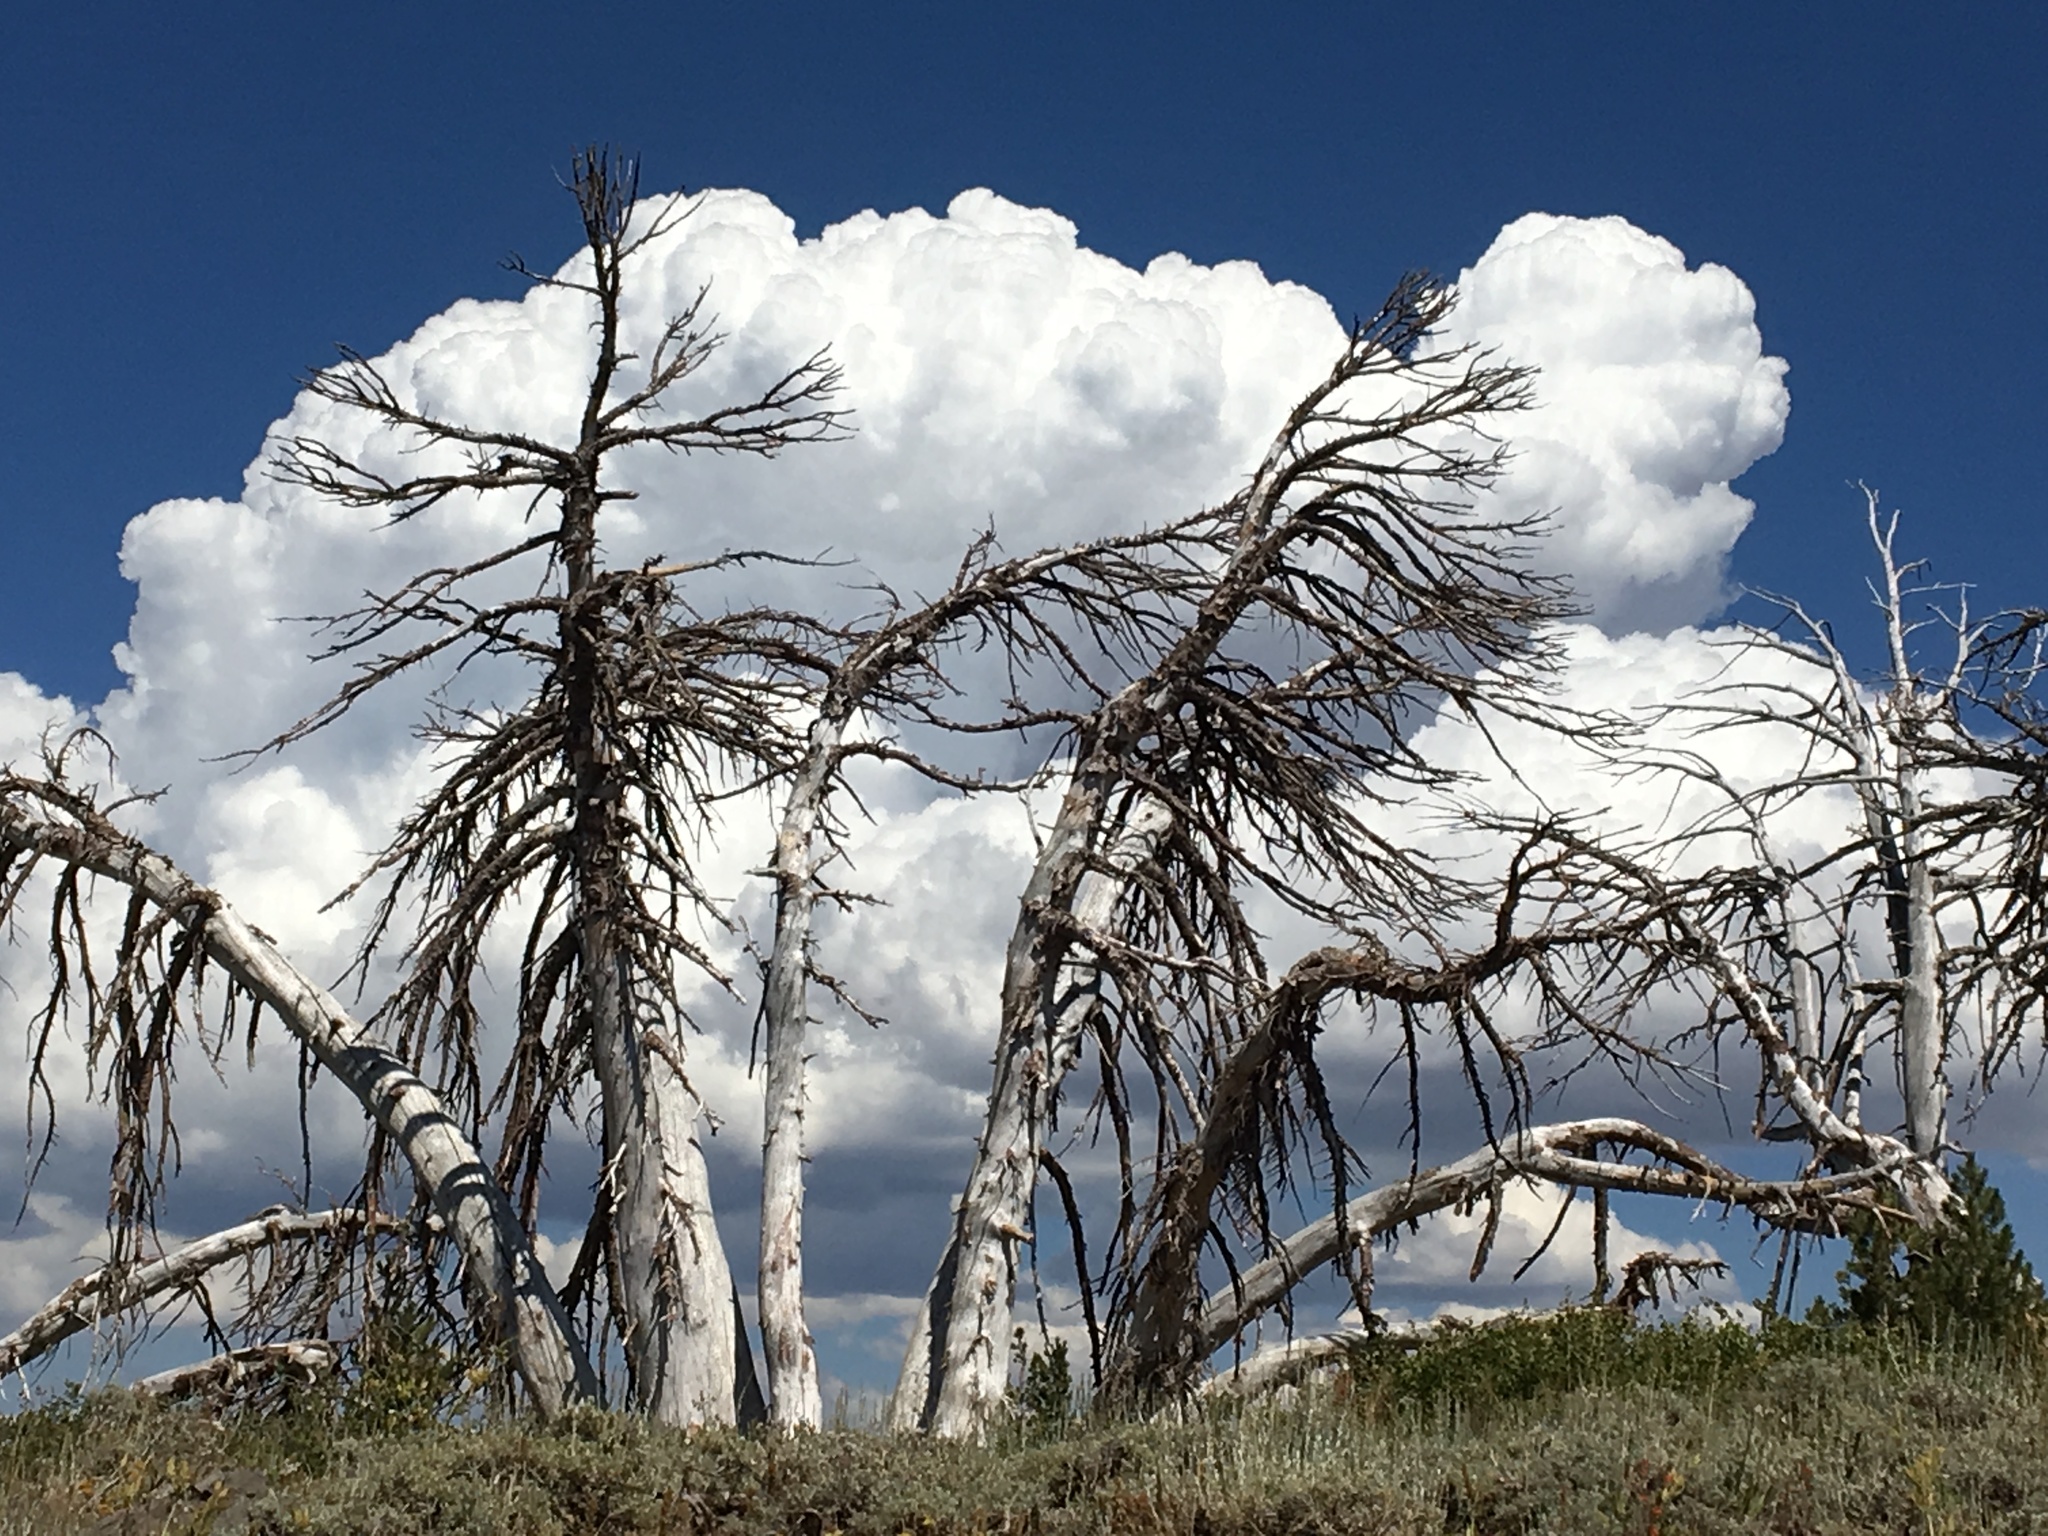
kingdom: Plantae
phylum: Tracheophyta
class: Pinopsida
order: Pinales
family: Pinaceae
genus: Pinus
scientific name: Pinus albicaulis
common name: Whitebark pine
